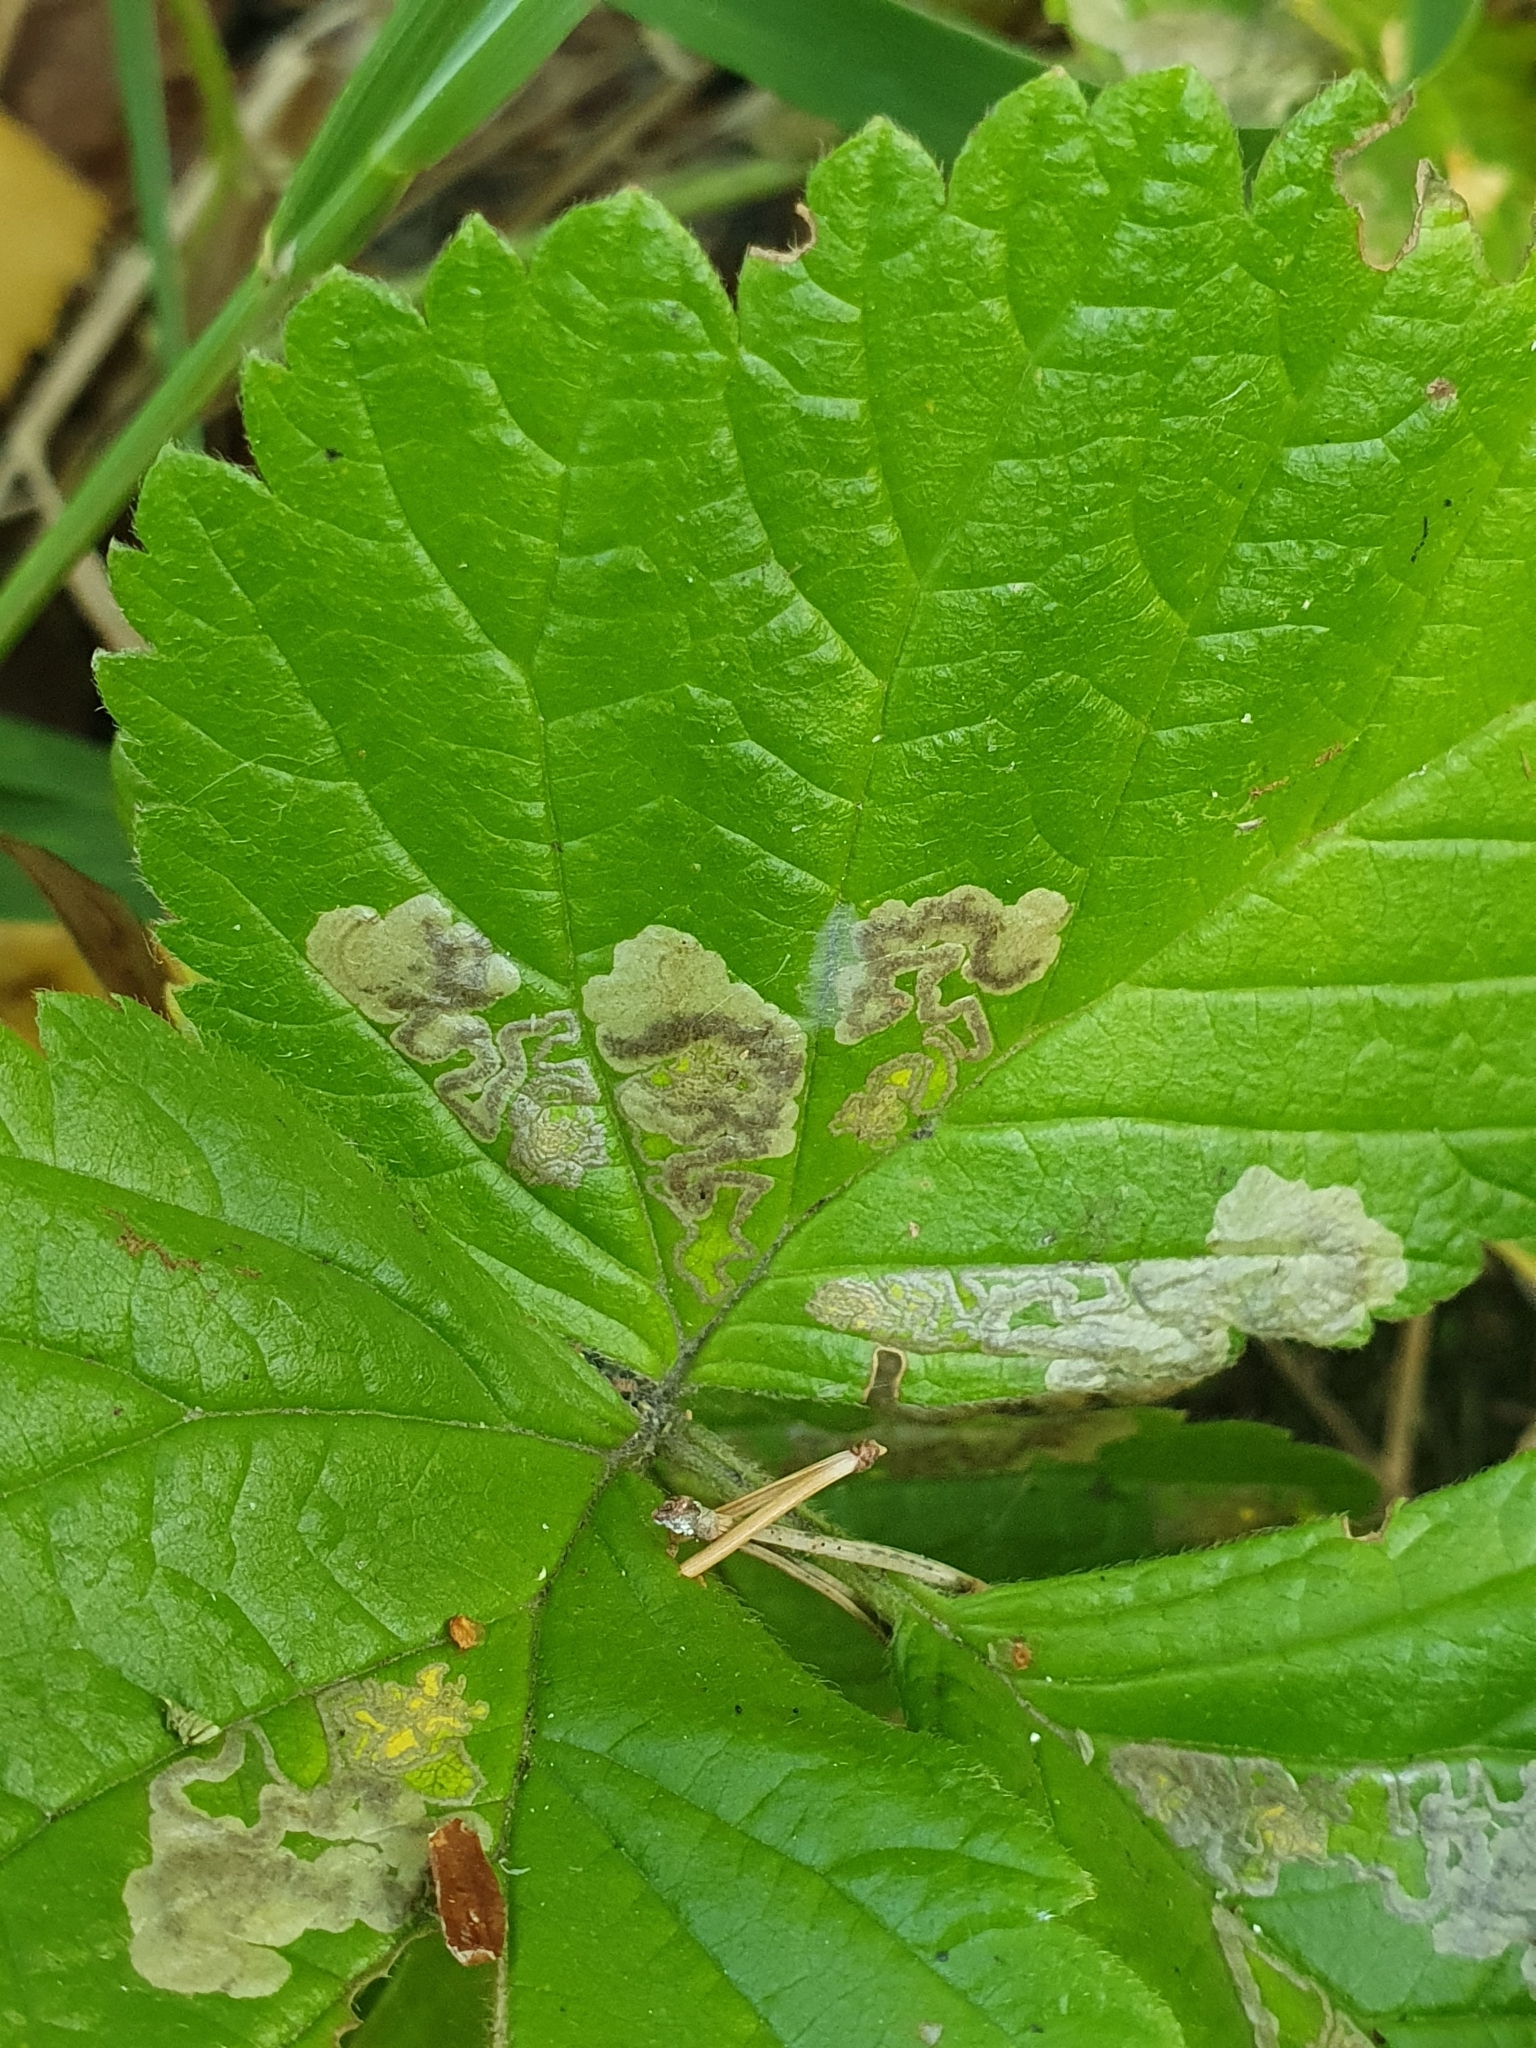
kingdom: Animalia
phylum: Arthropoda
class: Insecta
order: Lepidoptera
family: Nepticulidae
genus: Ectoedemia
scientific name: Ectoedemia rubivora
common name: Dewberry pigmy
